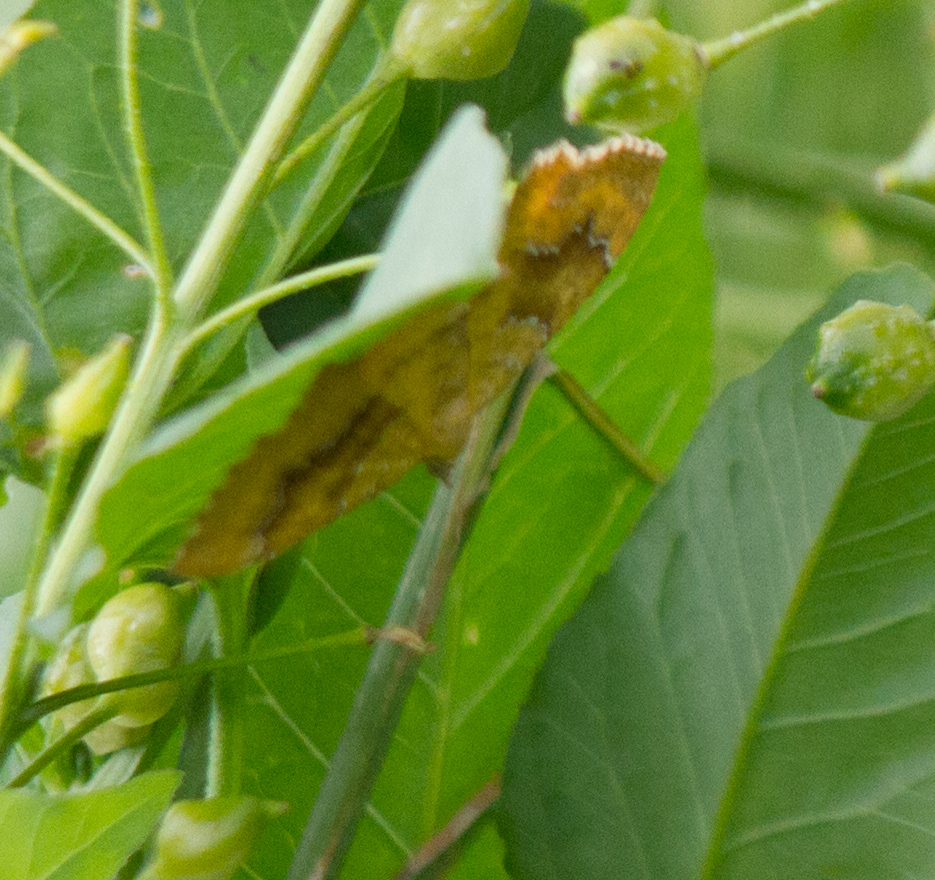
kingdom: Animalia
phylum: Arthropoda
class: Insecta
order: Lepidoptera
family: Geometridae
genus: Camptogramma
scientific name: Camptogramma bilineata
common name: Yellow shell
